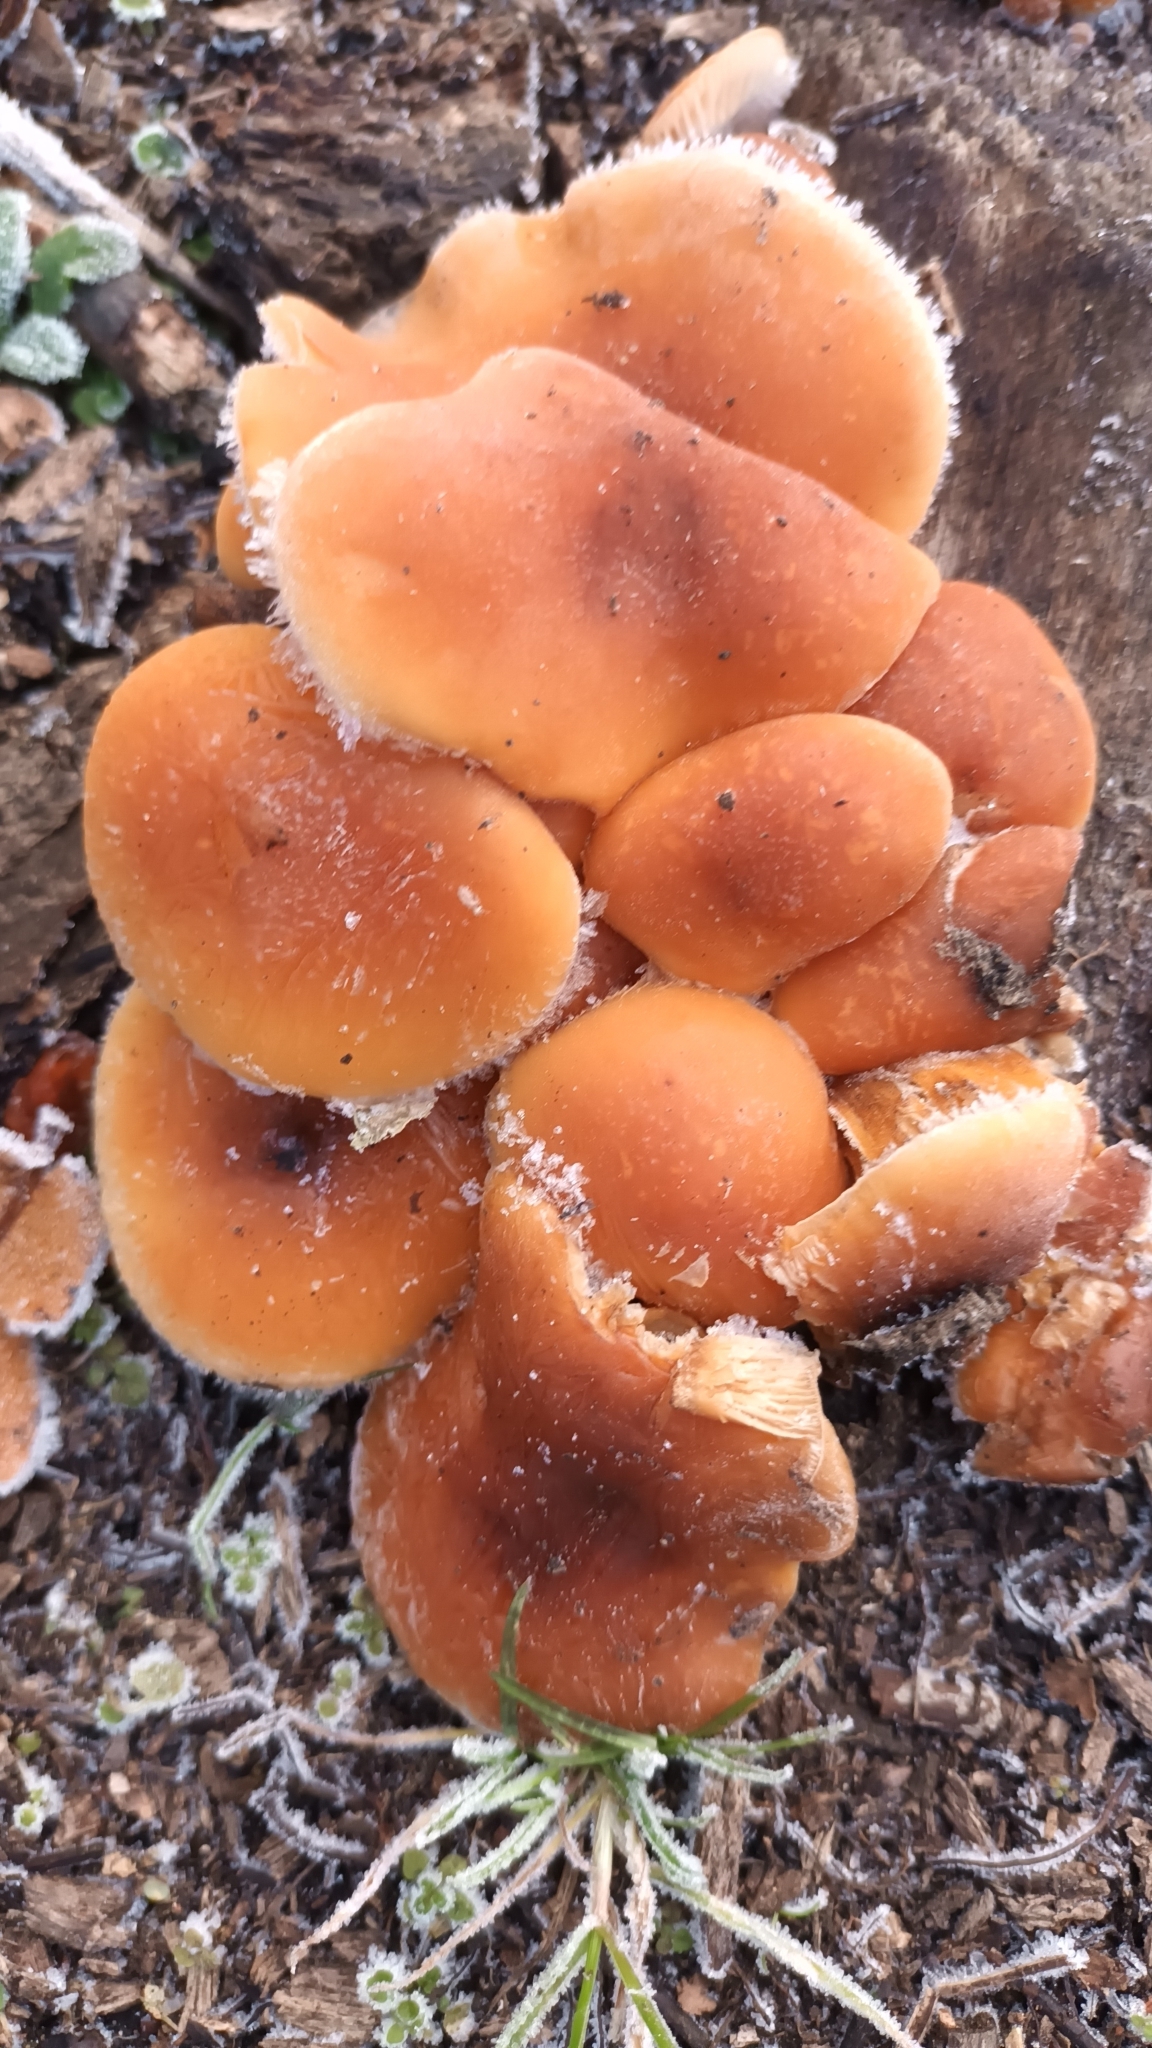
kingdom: Fungi
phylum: Basidiomycota
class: Agaricomycetes
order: Agaricales
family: Physalacriaceae
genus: Flammulina
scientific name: Flammulina
